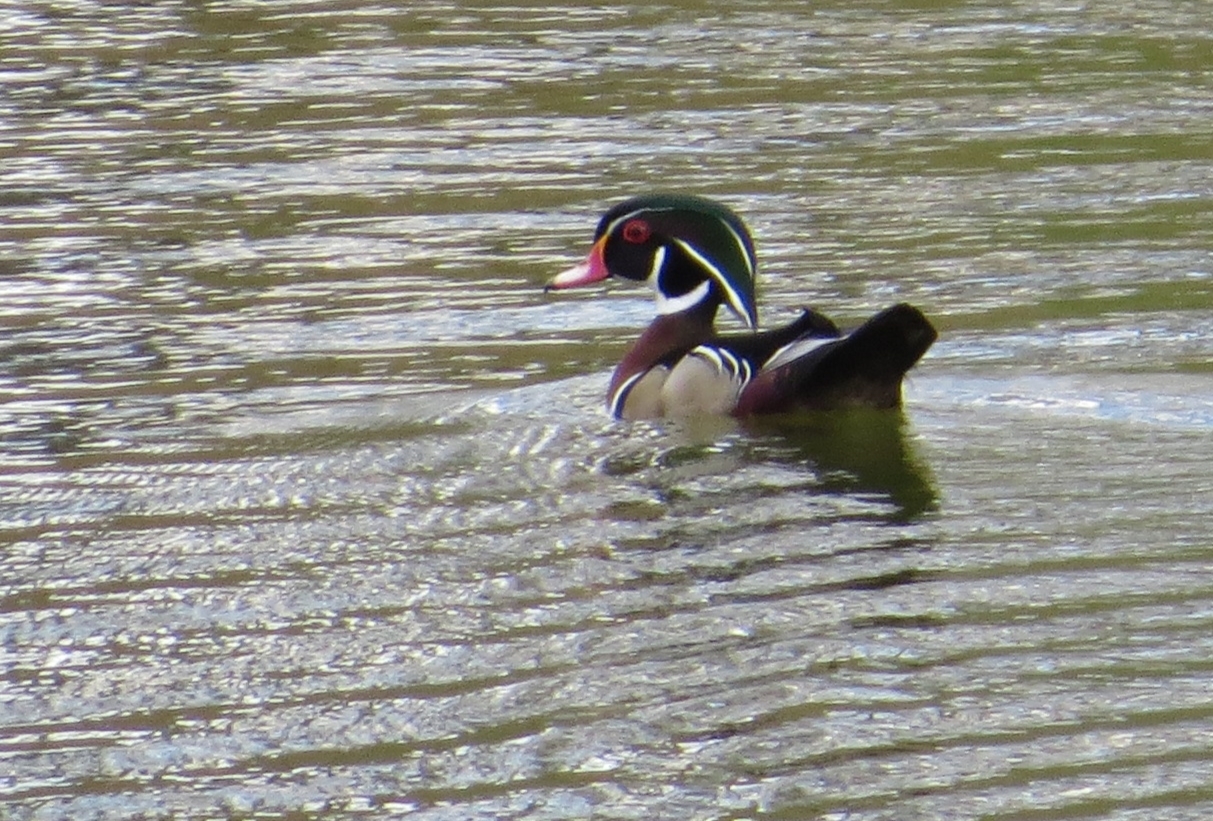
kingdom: Animalia
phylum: Chordata
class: Aves
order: Anseriformes
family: Anatidae
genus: Aix
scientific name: Aix sponsa
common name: Wood duck
